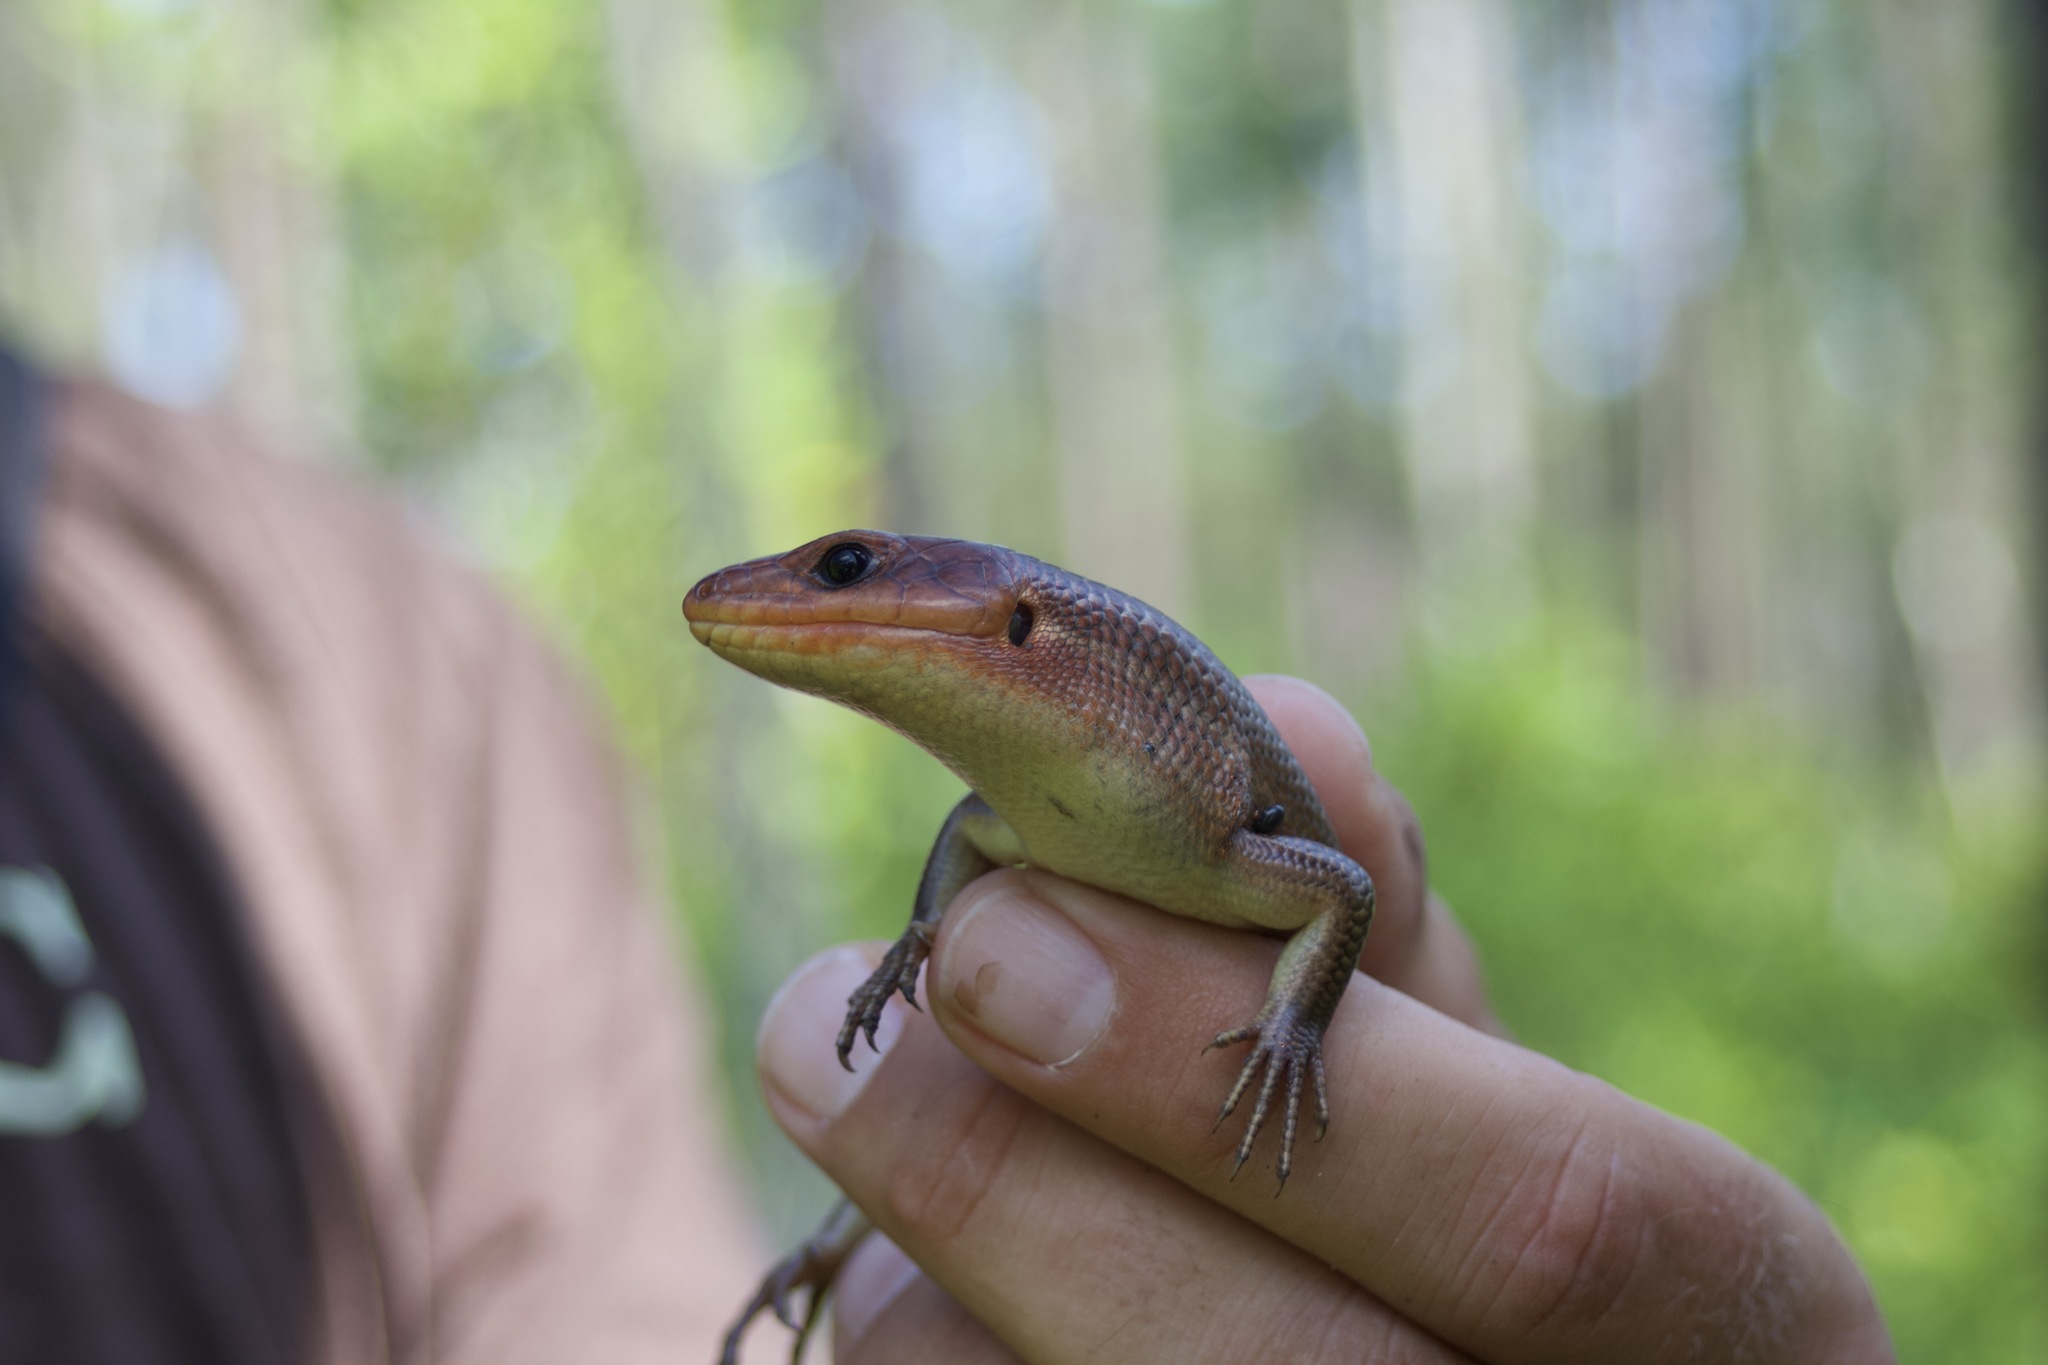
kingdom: Animalia
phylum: Chordata
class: Squamata
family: Scincidae
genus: Plestiodon
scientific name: Plestiodon laticeps
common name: Broadhead skink
